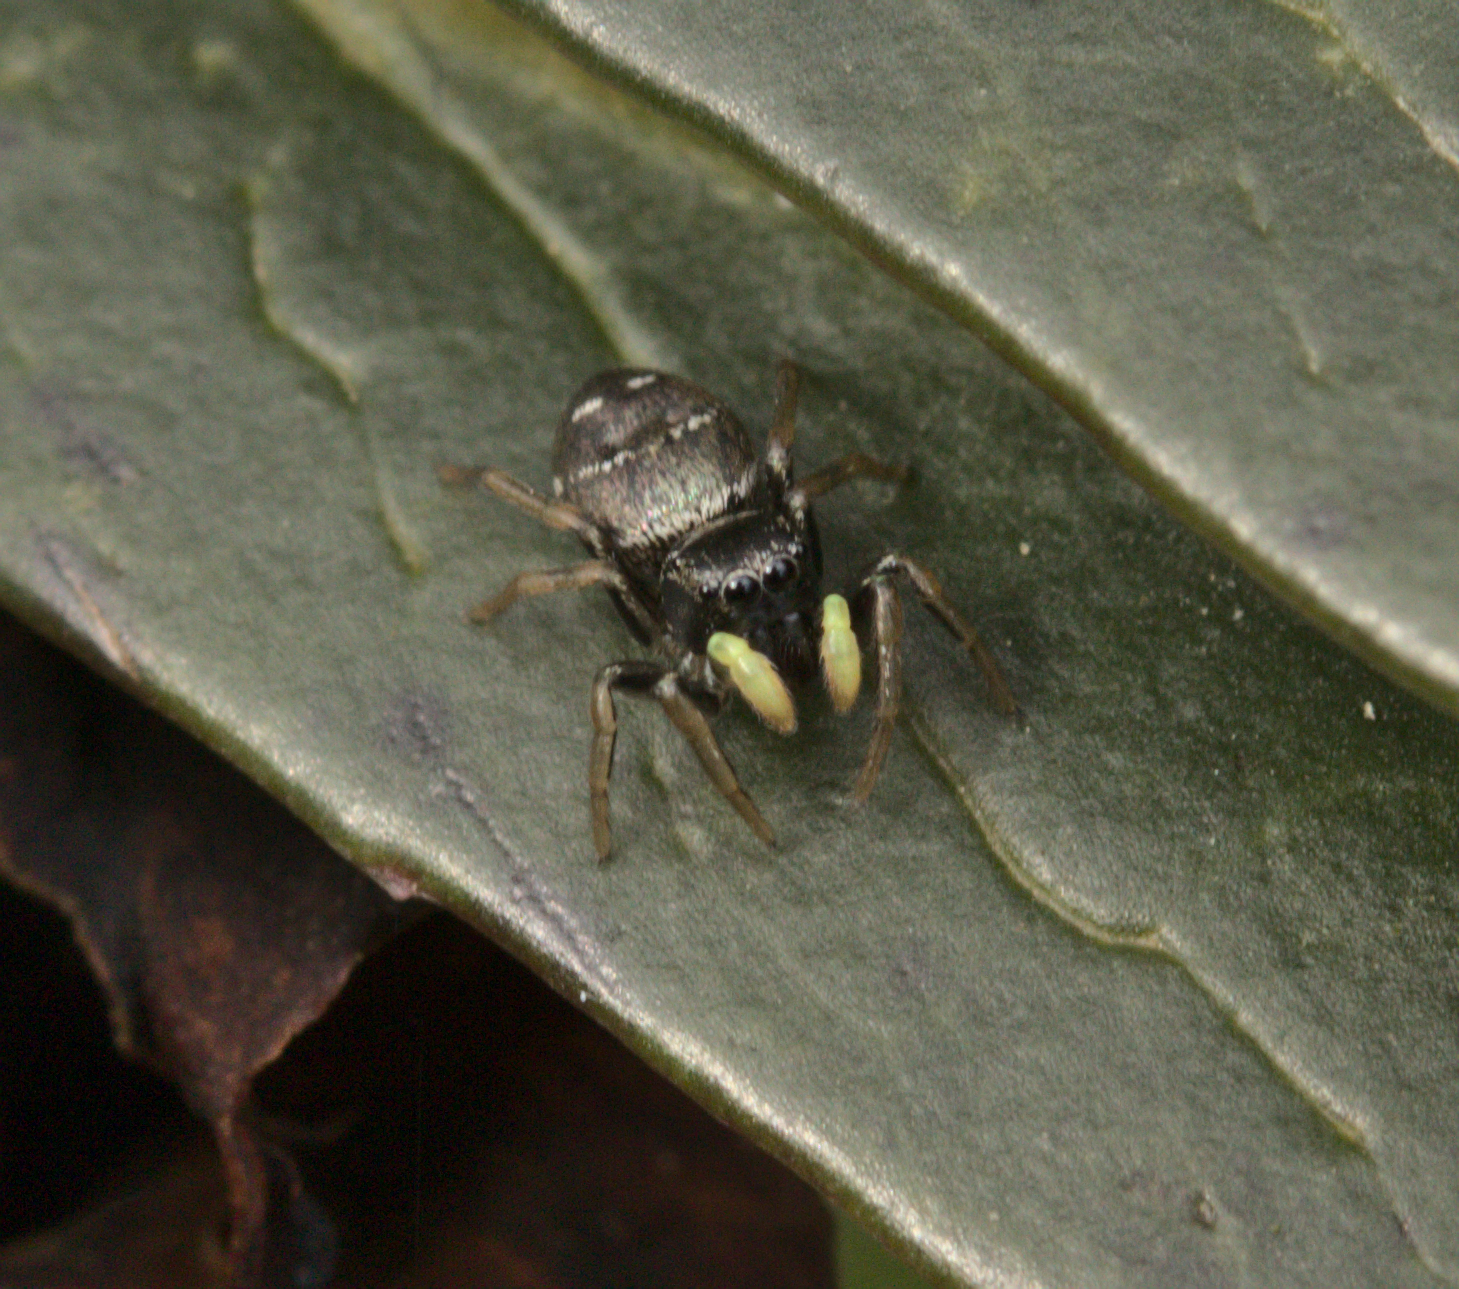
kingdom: Animalia
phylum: Arthropoda
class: Arachnida
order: Araneae
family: Salticidae
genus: Heliophanus
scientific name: Heliophanus cupreus
